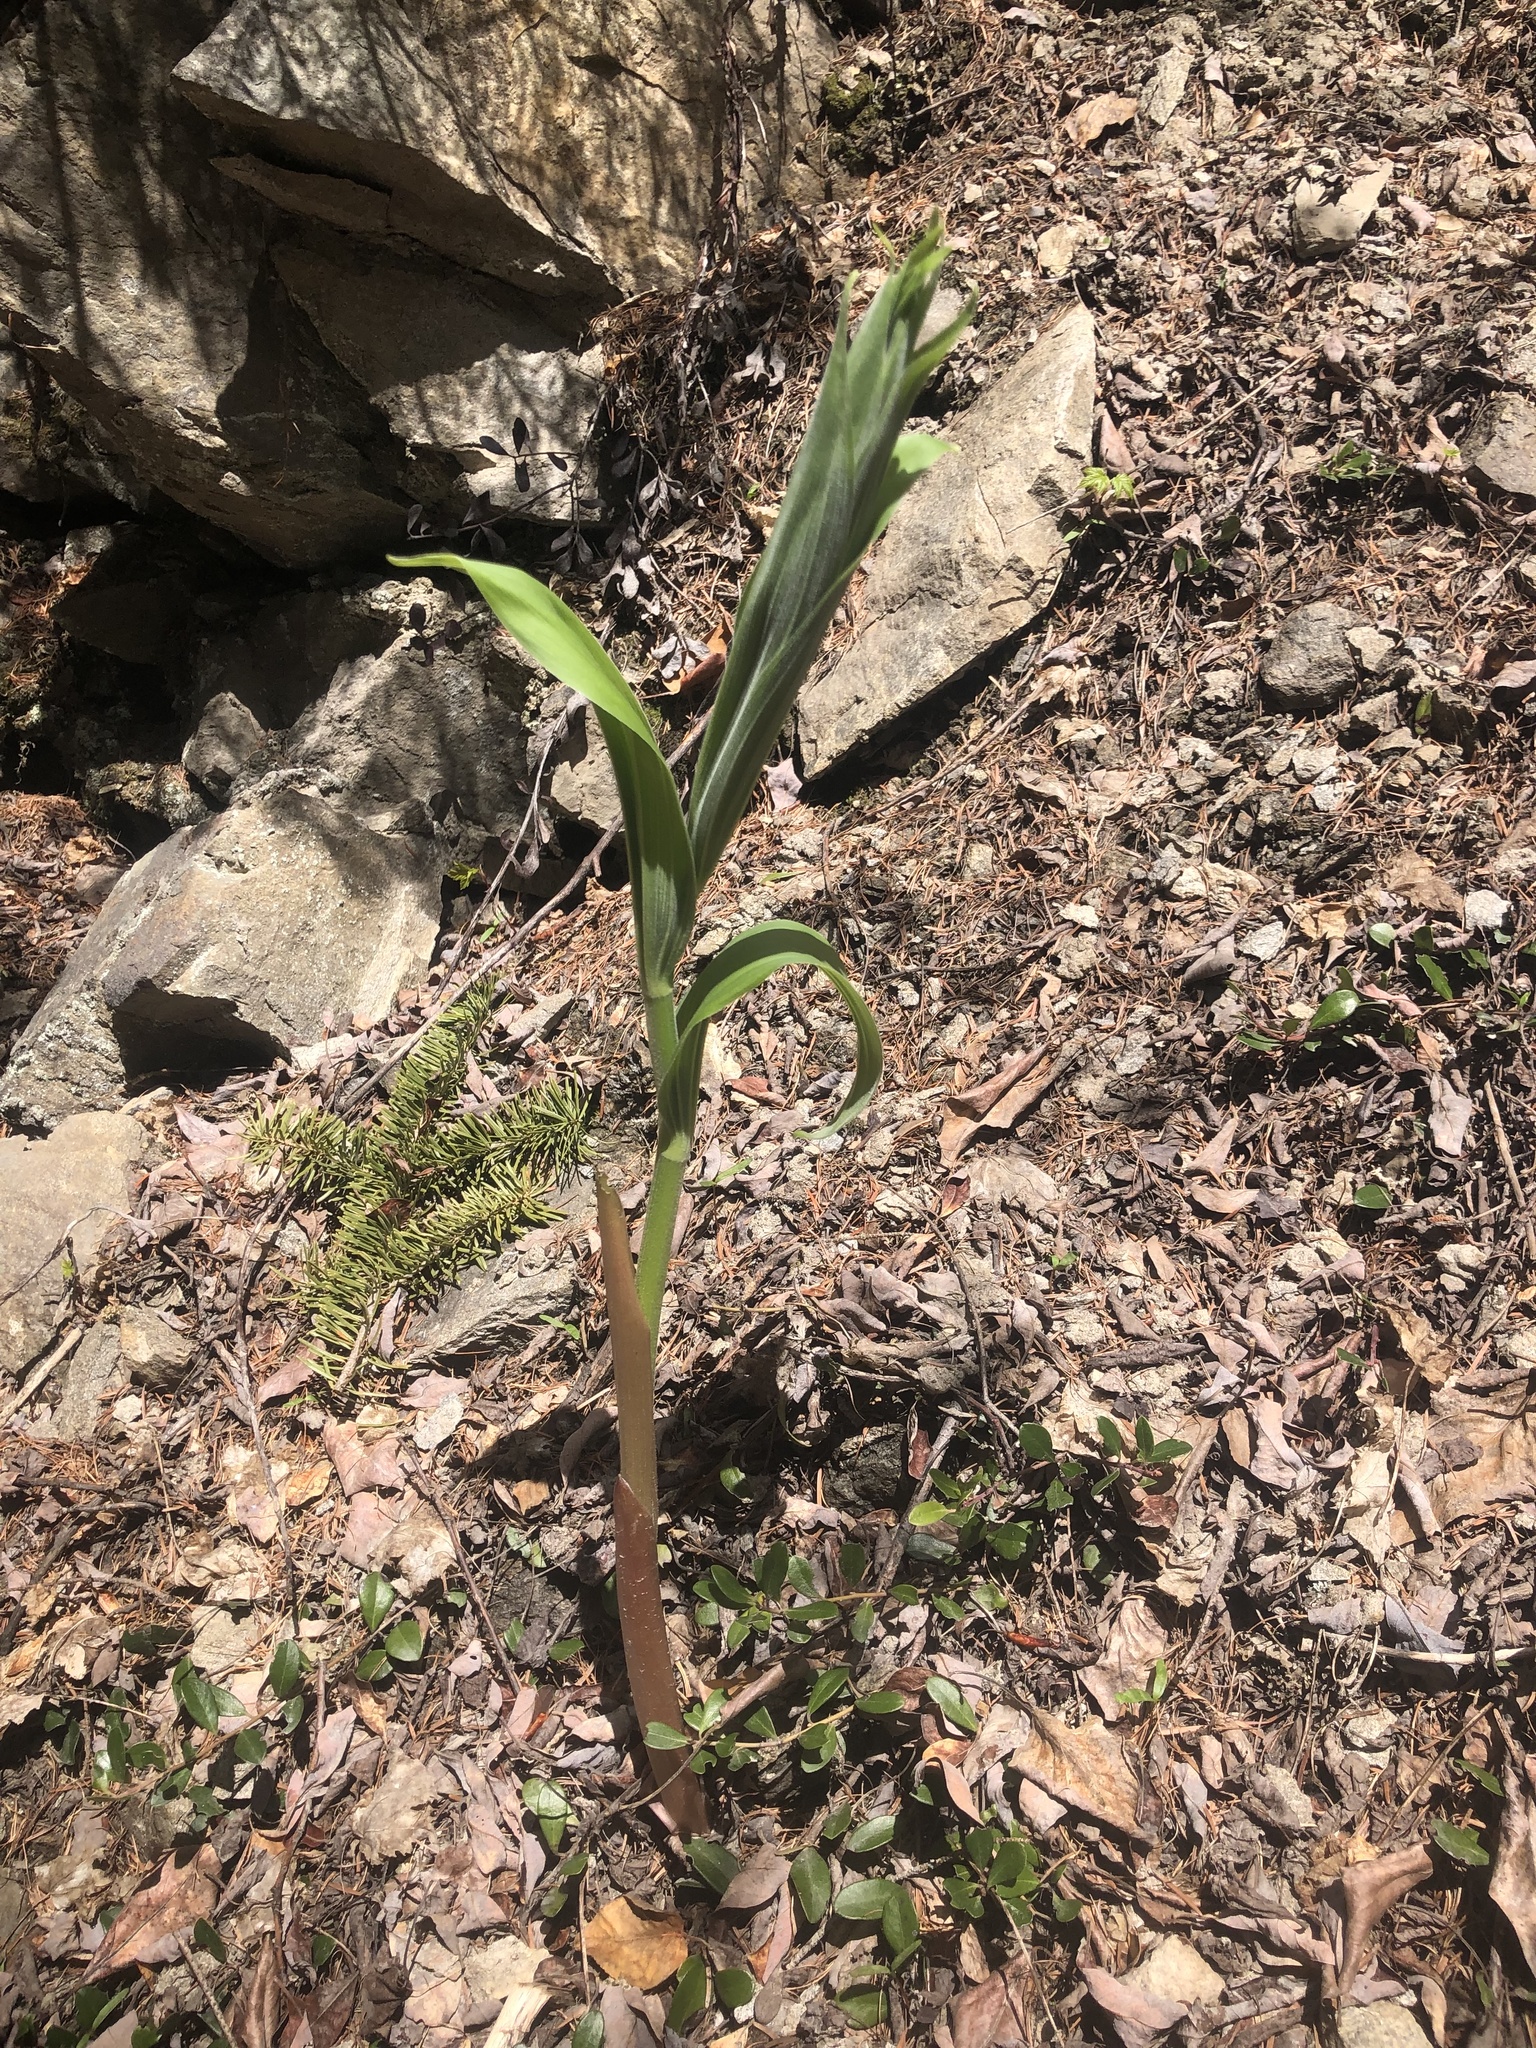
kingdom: Plantae
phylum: Tracheophyta
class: Liliopsida
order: Asparagales
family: Asparagaceae
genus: Maianthemum
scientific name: Maianthemum racemosum
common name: False spikenard
